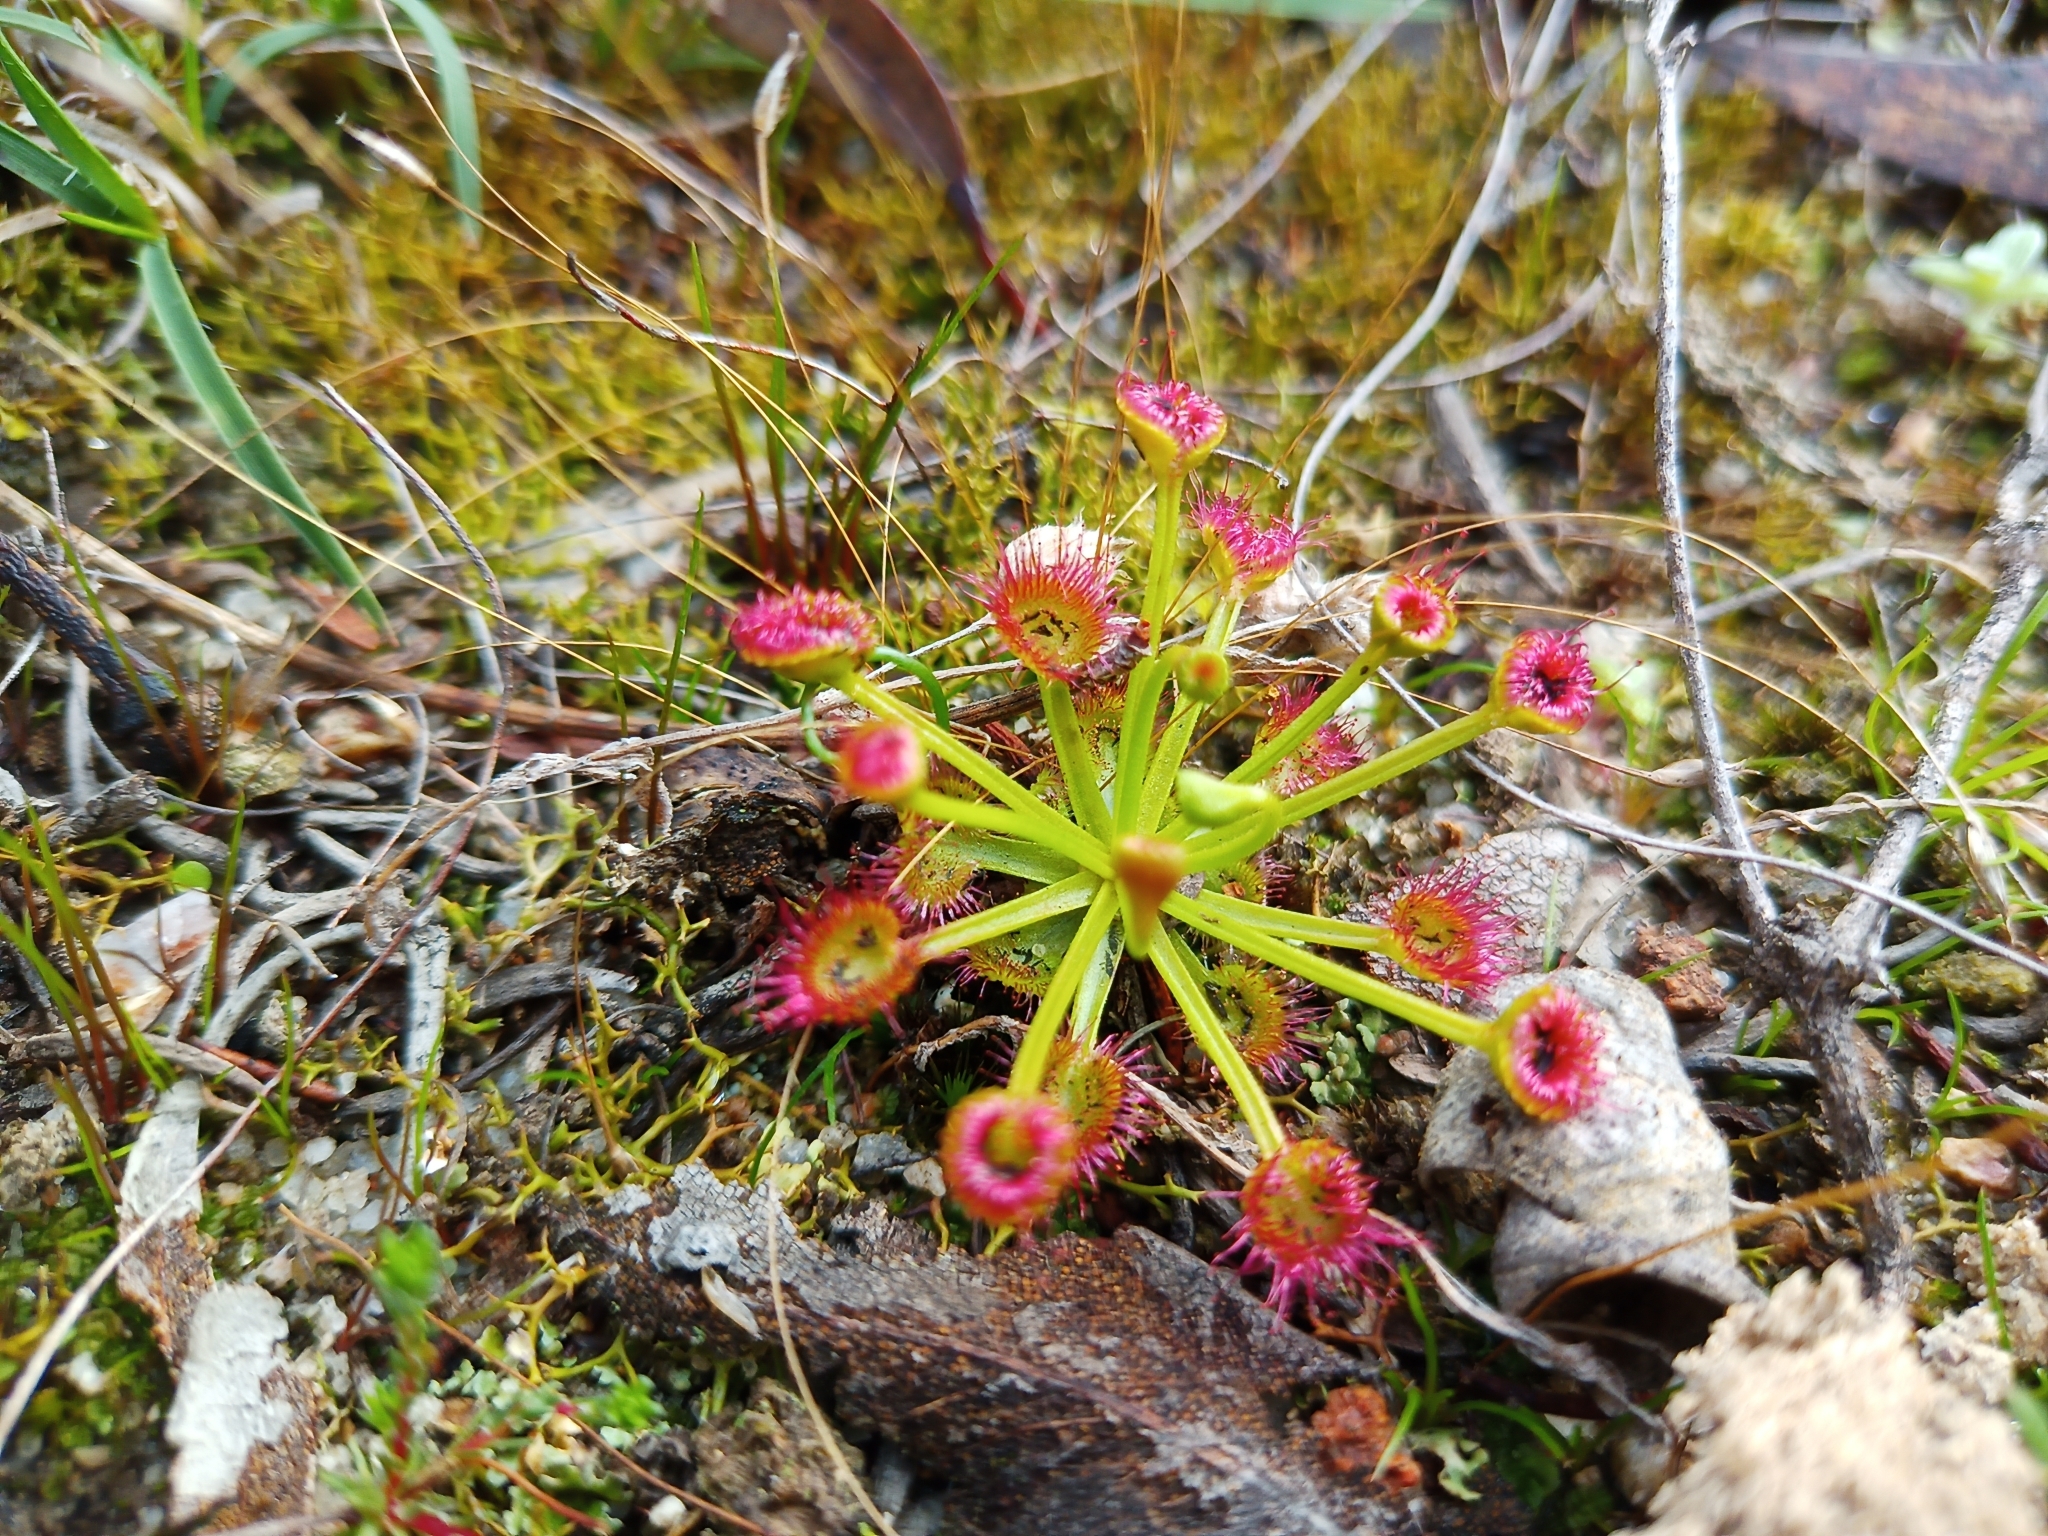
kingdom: Plantae
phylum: Tracheophyta
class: Magnoliopsida
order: Caryophyllales
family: Droseraceae
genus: Drosera
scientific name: Drosera stolonifera
